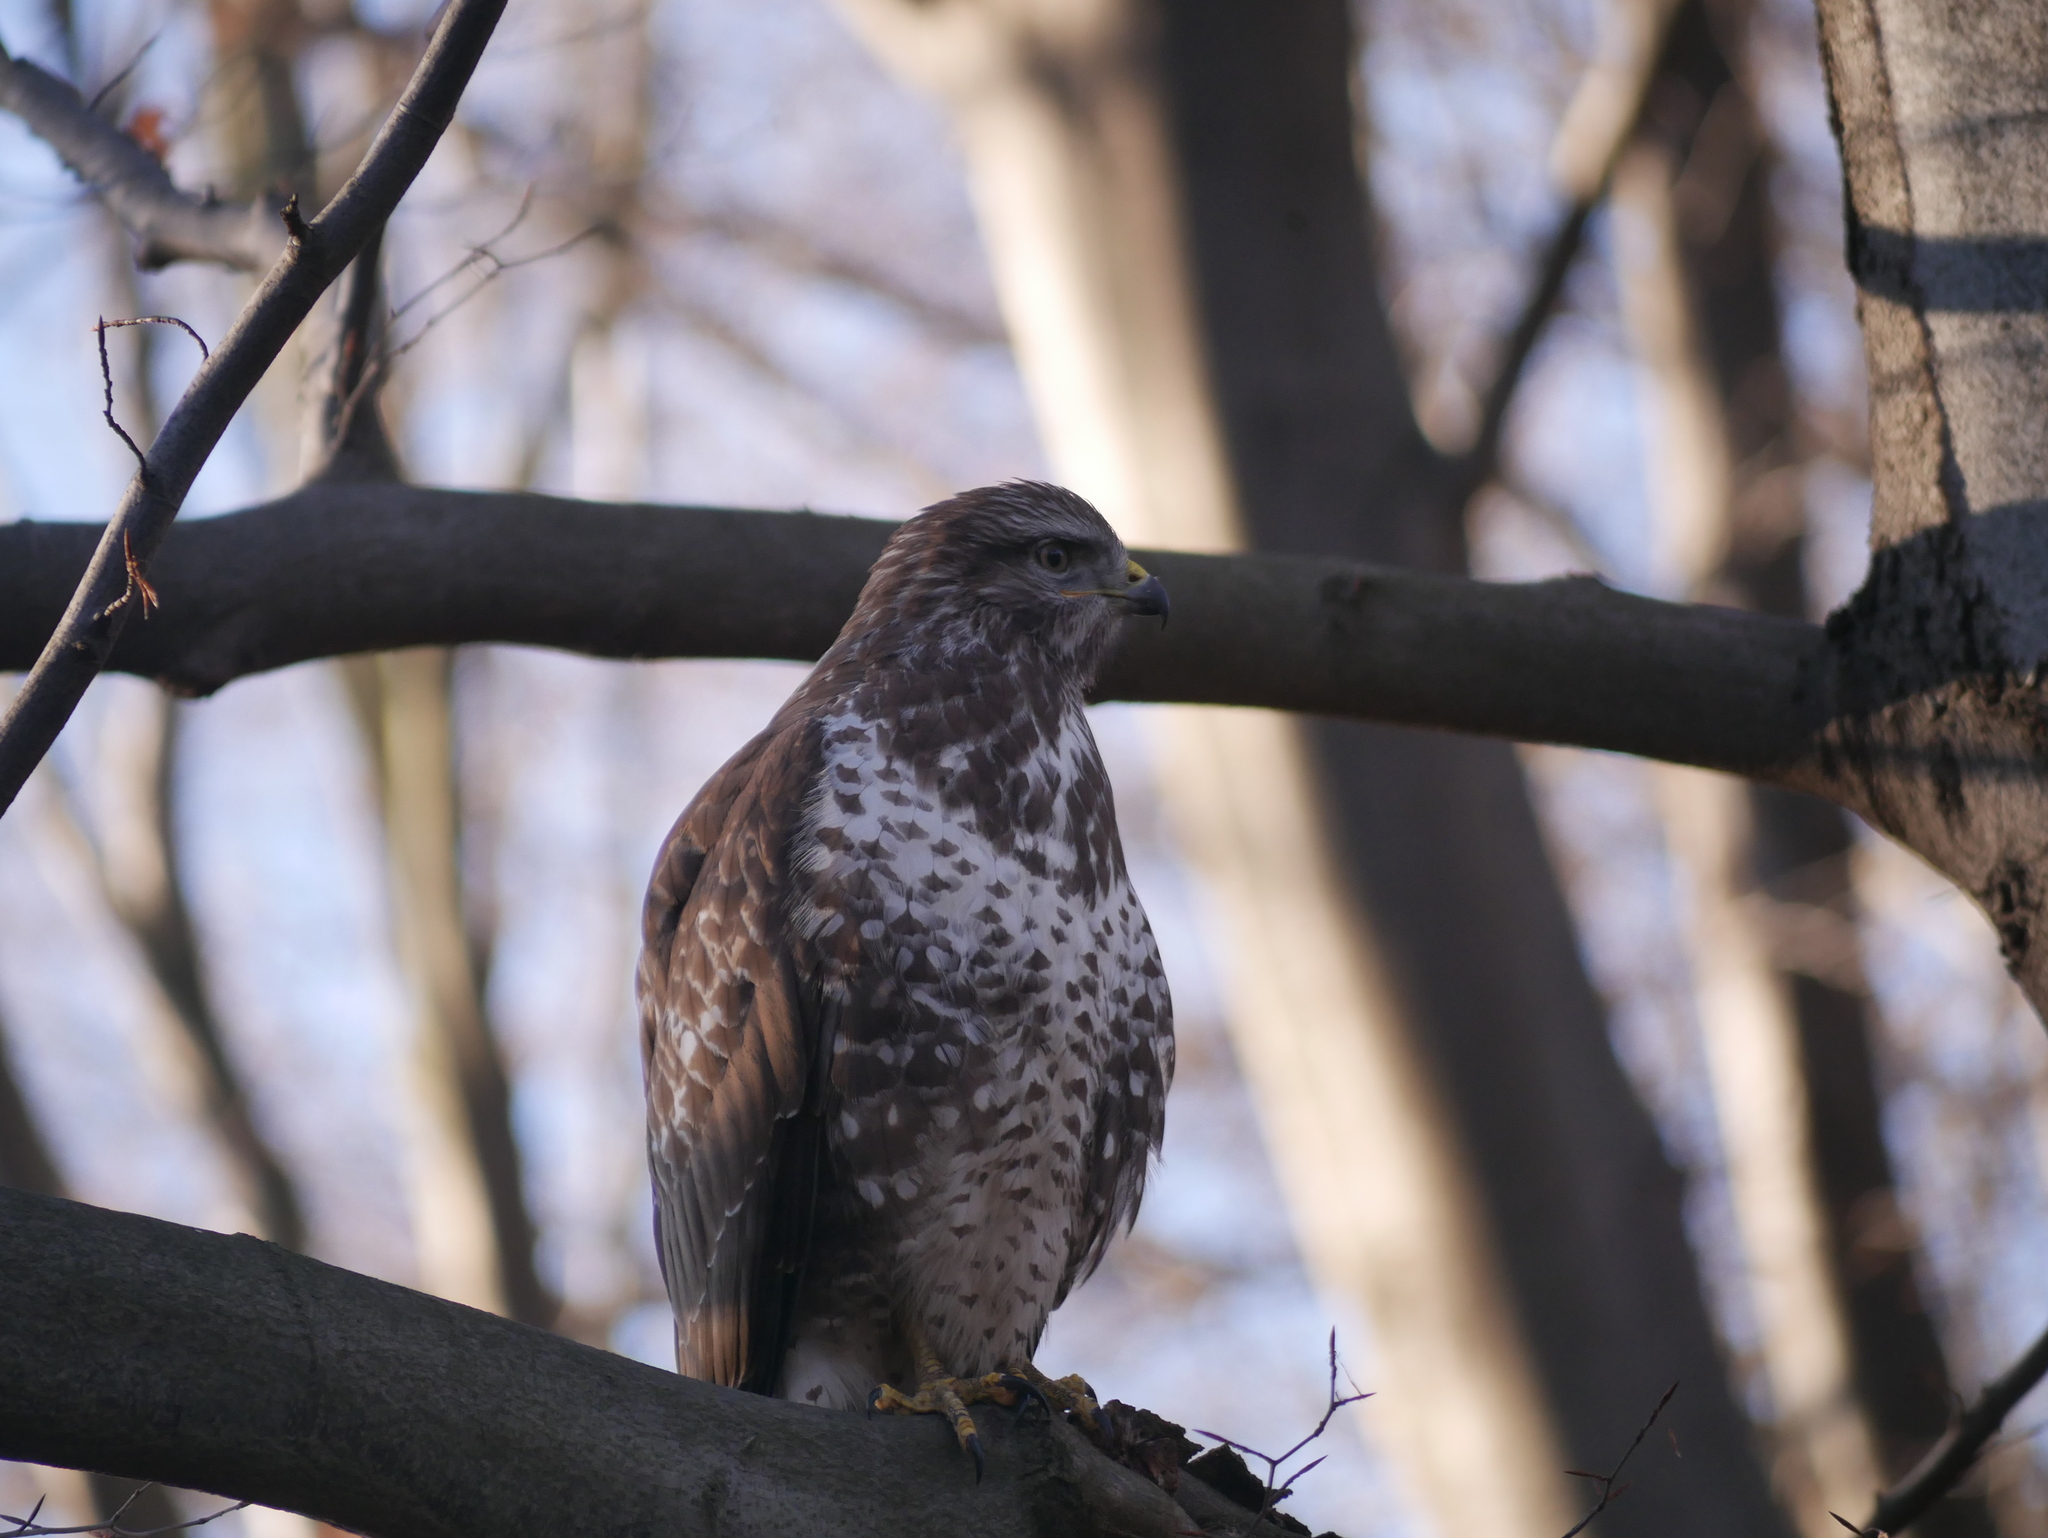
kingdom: Animalia
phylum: Chordata
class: Aves
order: Accipitriformes
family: Accipitridae
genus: Buteo
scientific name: Buteo buteo
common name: Common buzzard
